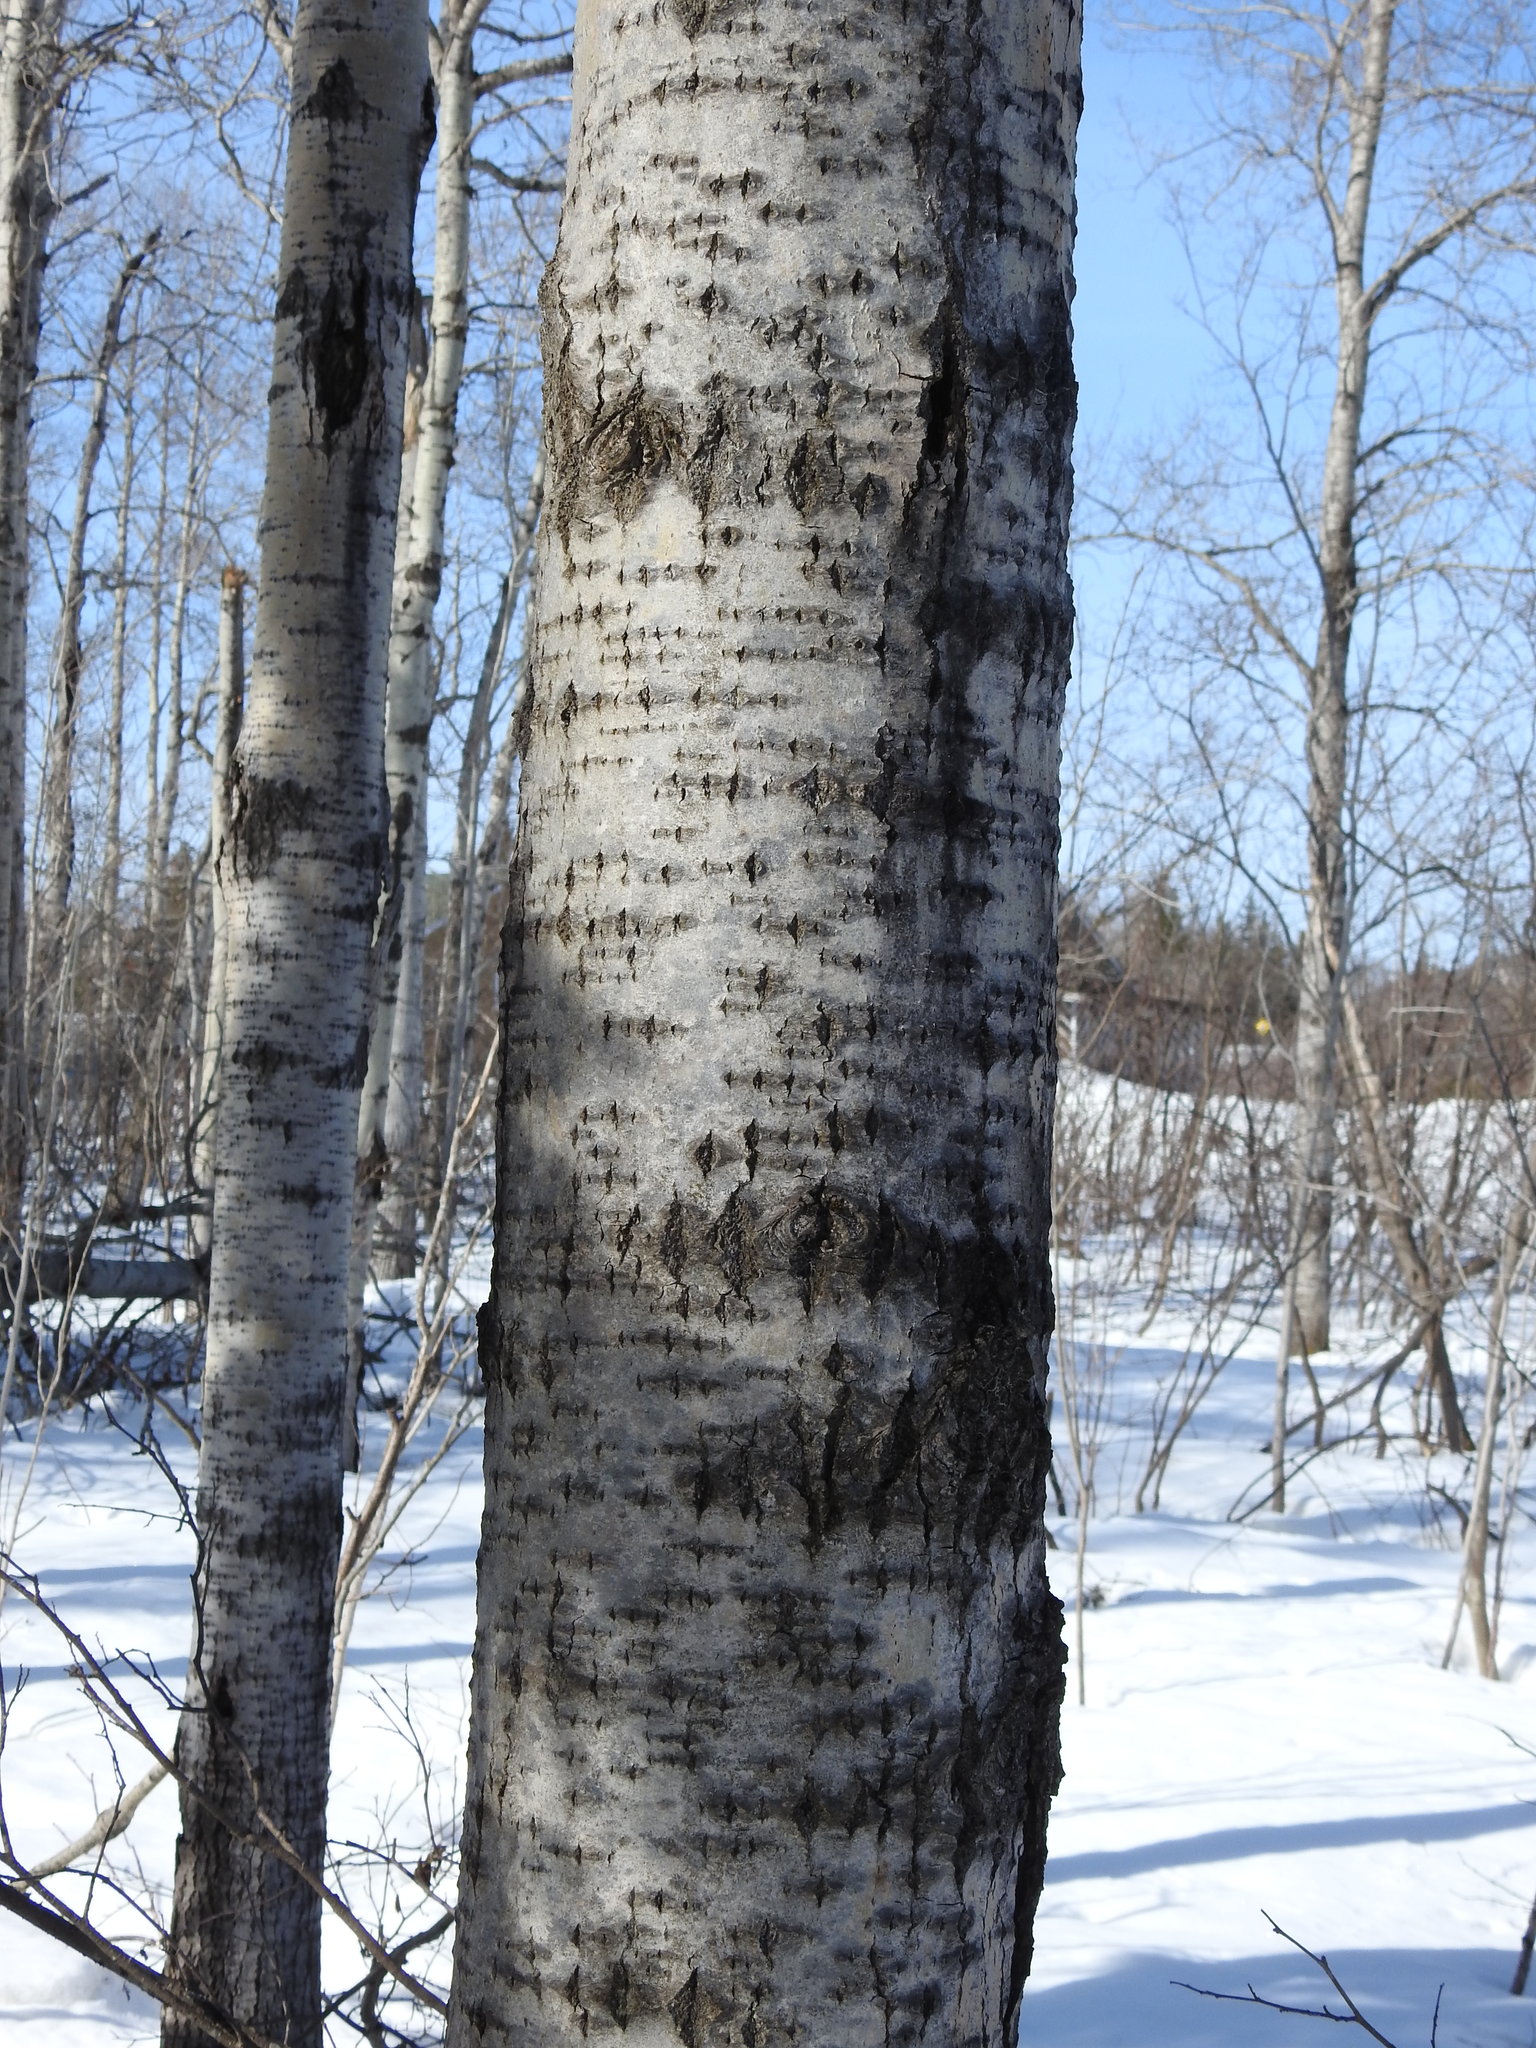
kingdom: Plantae
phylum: Tracheophyta
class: Magnoliopsida
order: Malpighiales
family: Salicaceae
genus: Populus
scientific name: Populus tremuloides
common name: Quaking aspen
